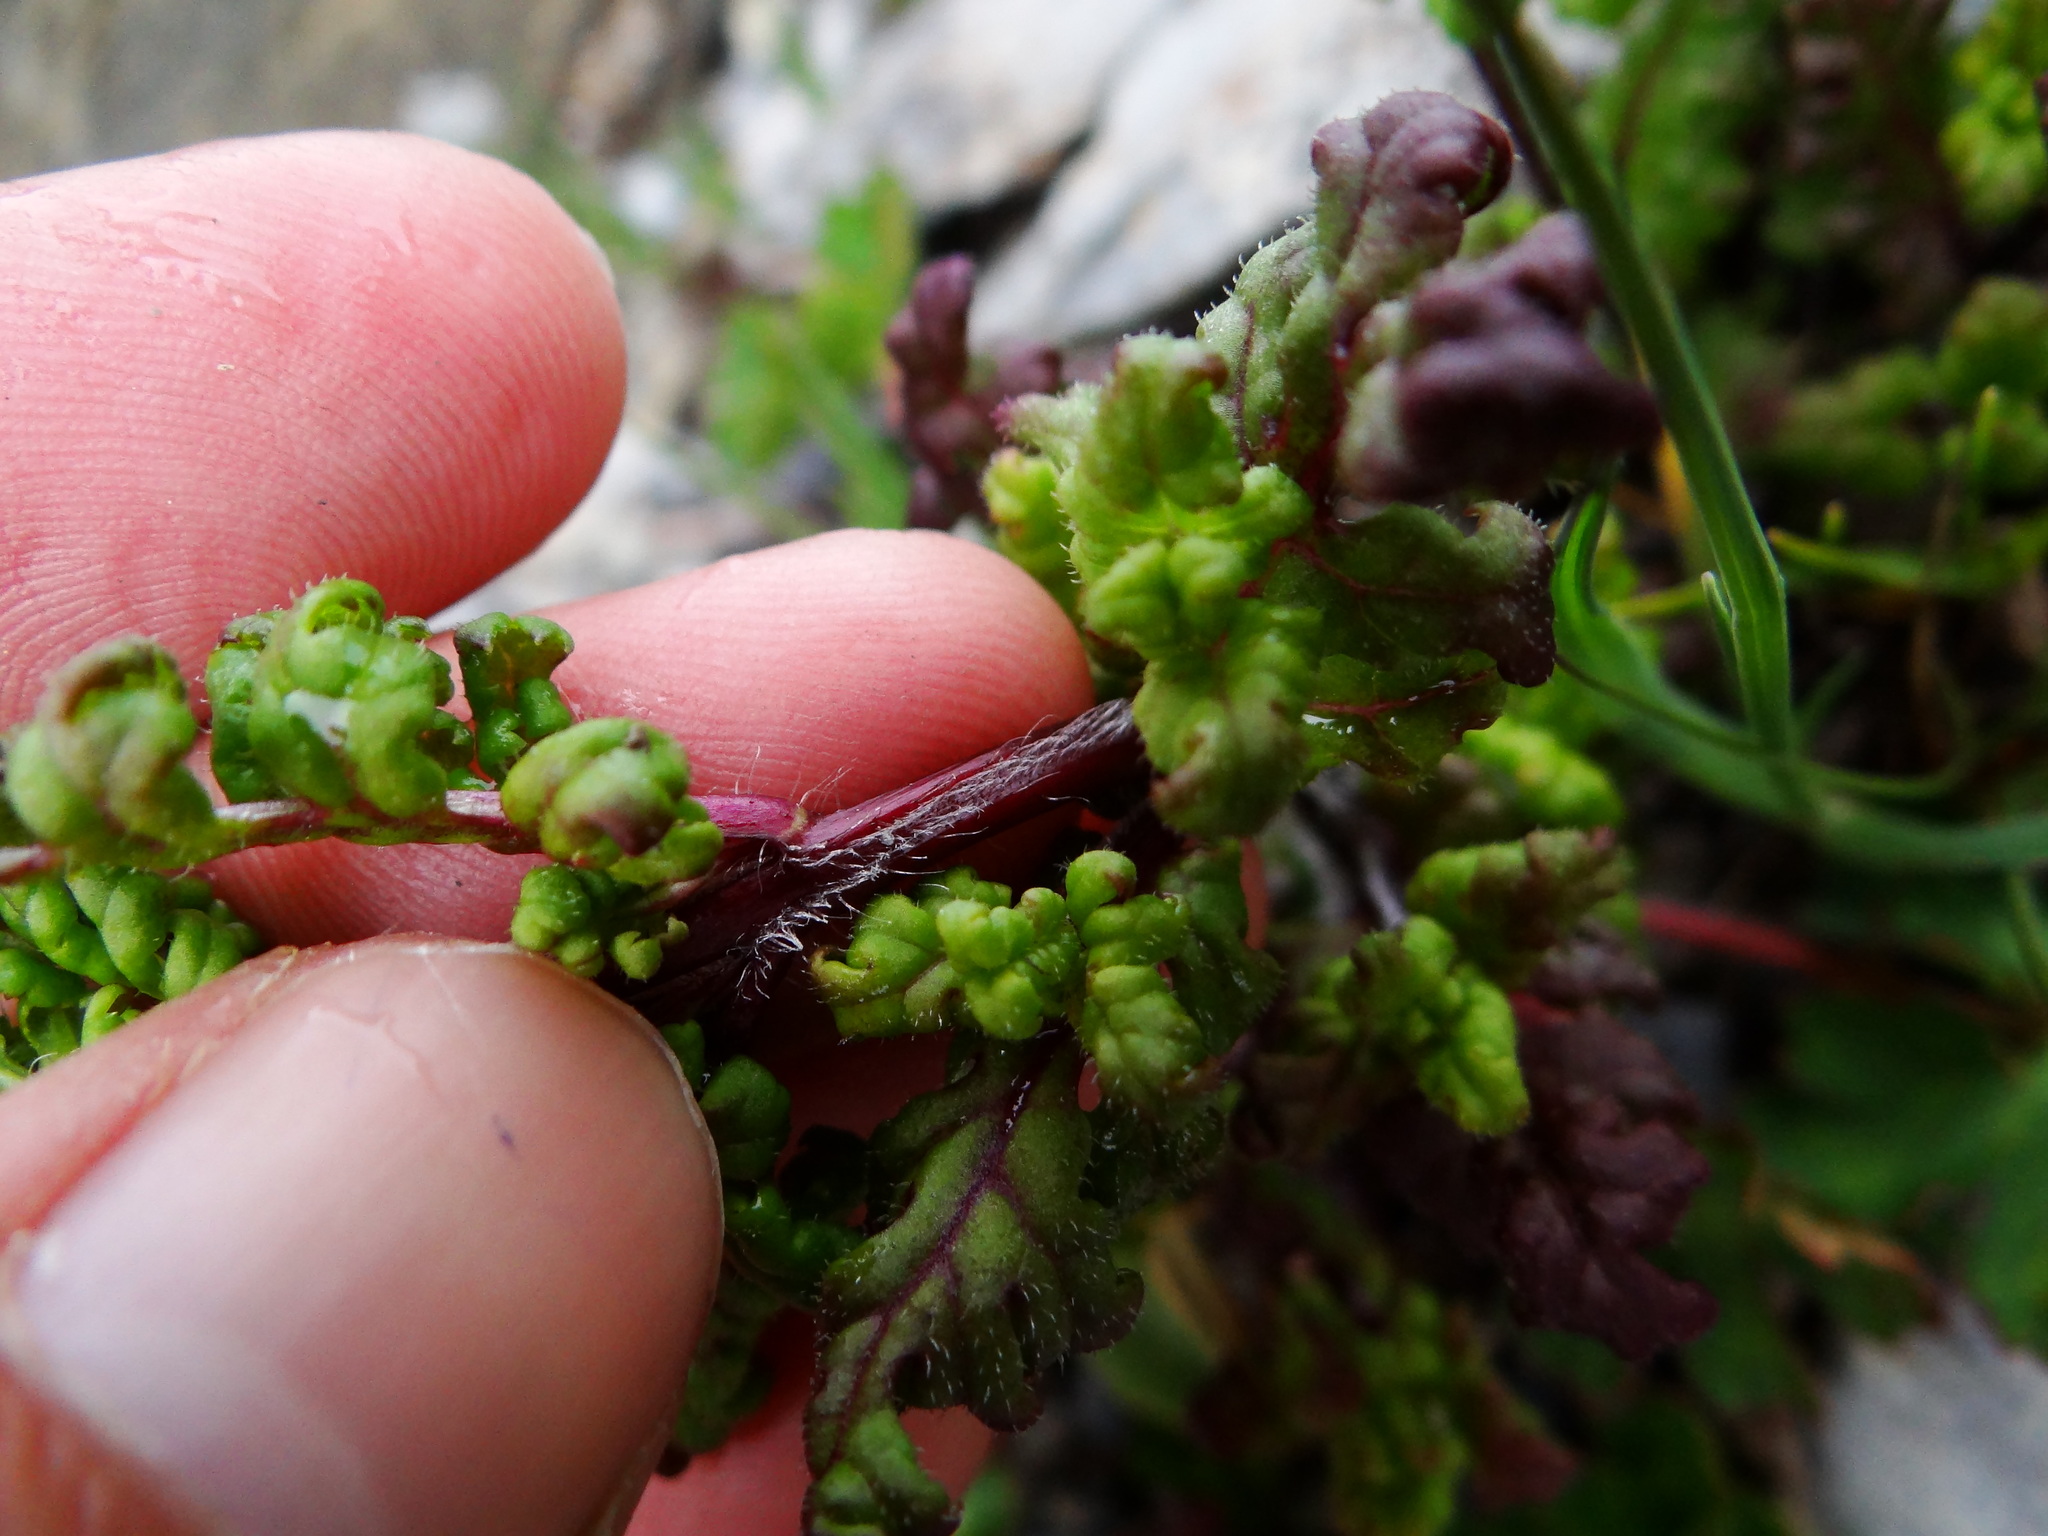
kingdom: Plantae
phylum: Tracheophyta
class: Magnoliopsida
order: Lamiales
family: Orobanchaceae
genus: Pedicularis
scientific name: Pedicularis ikomai
